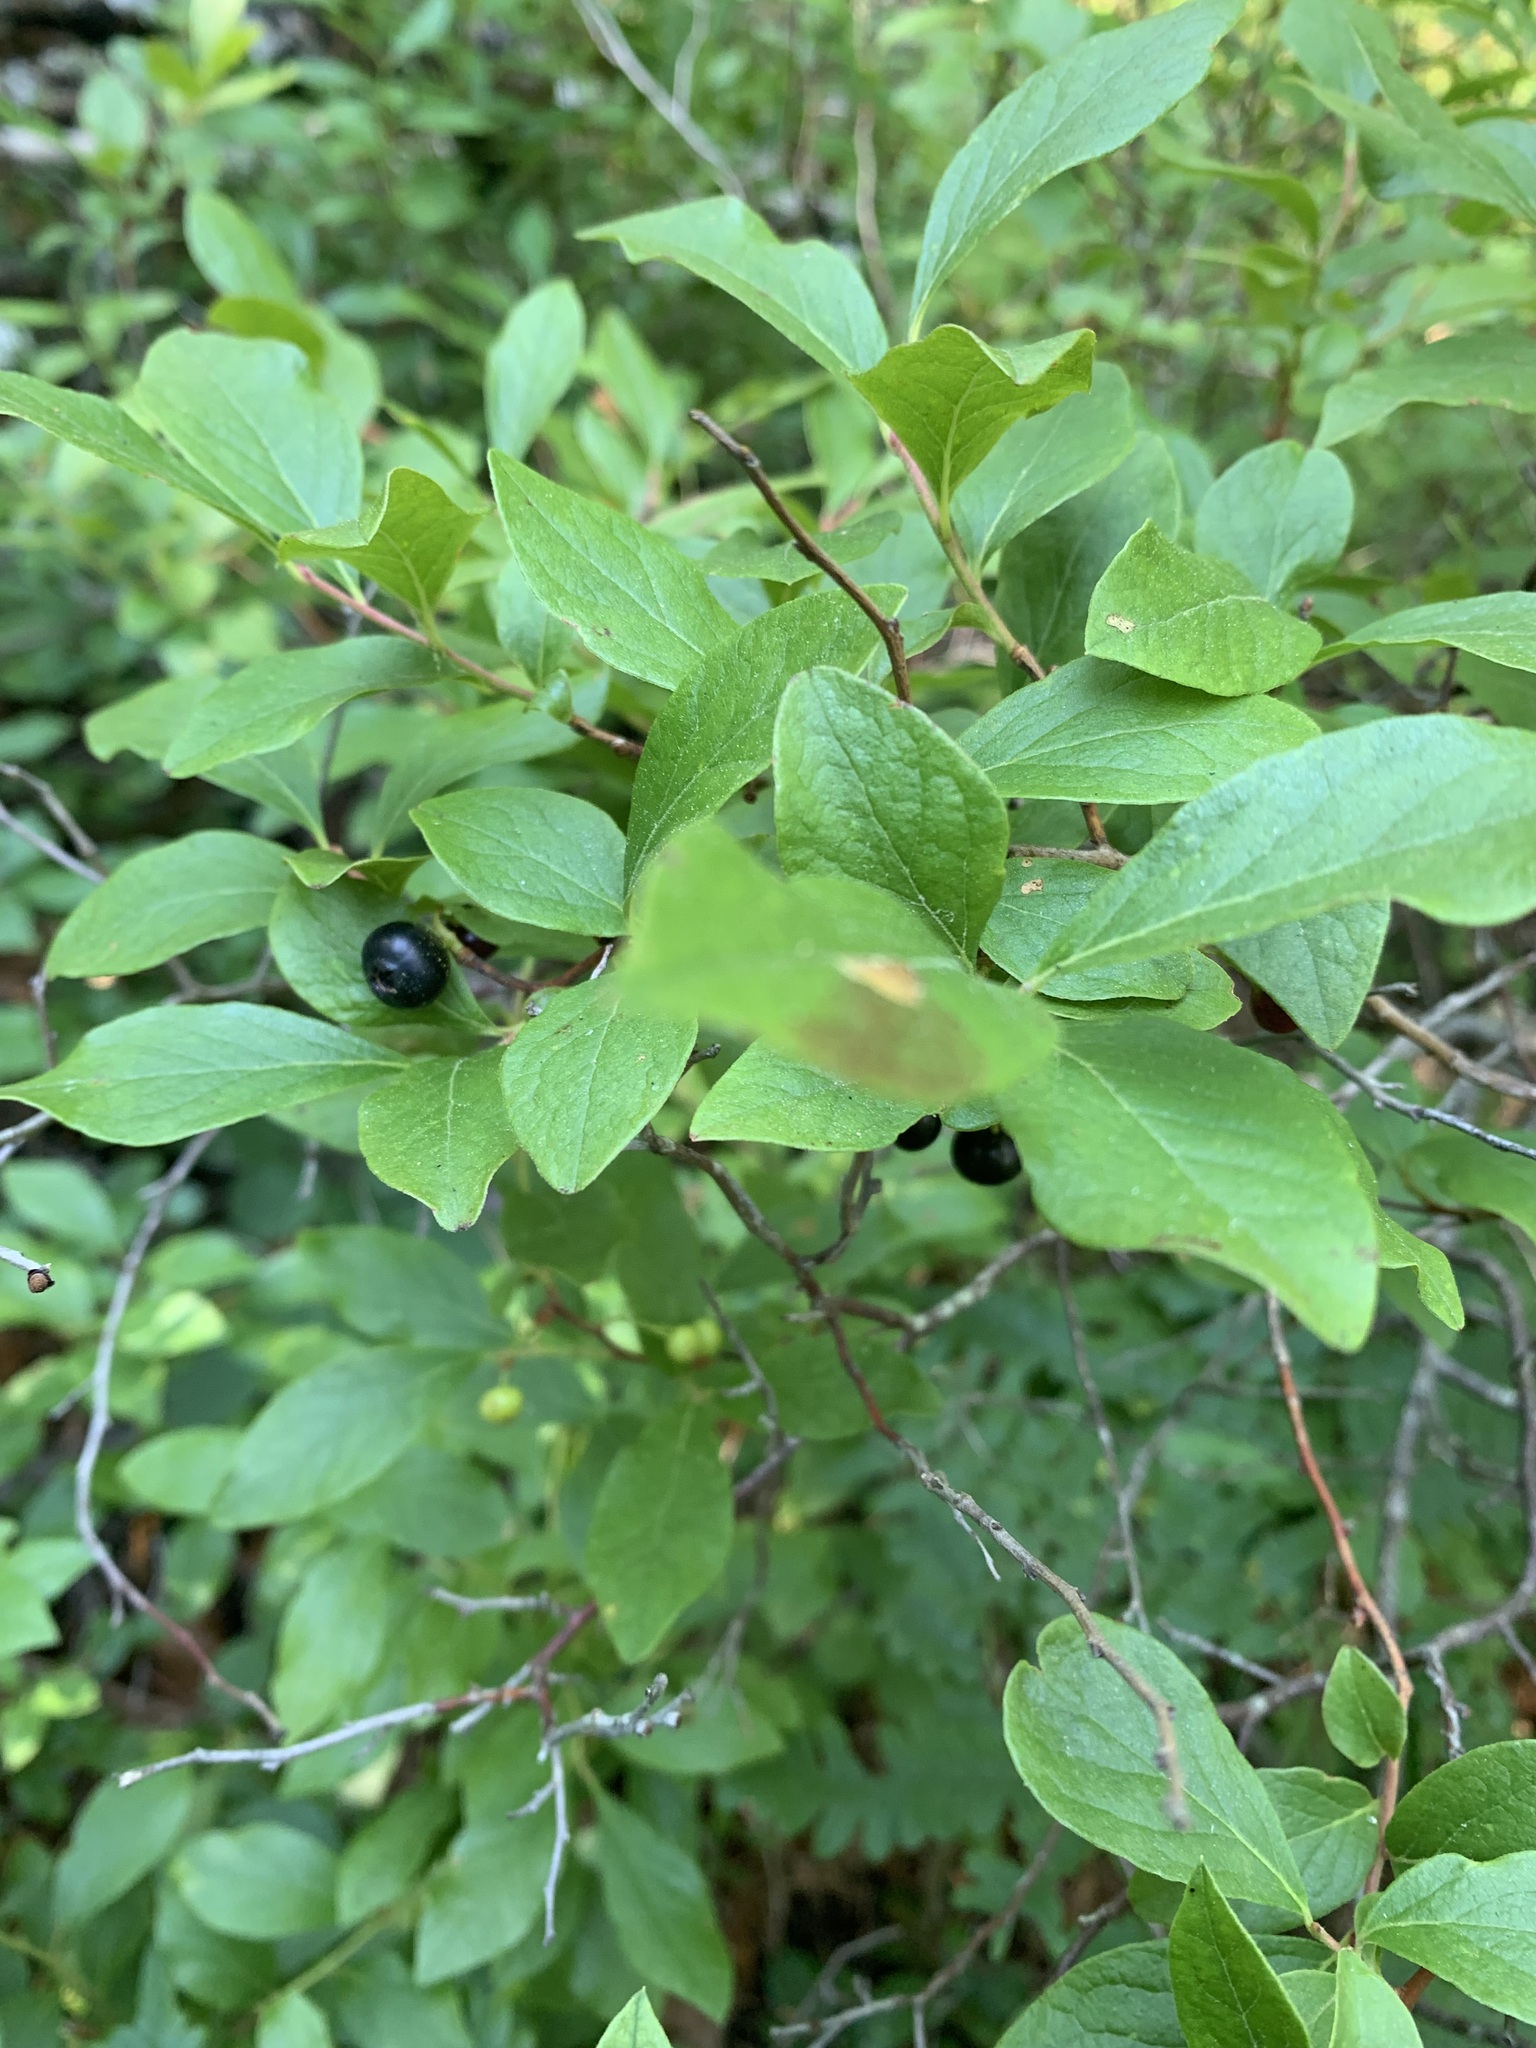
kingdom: Plantae
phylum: Tracheophyta
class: Magnoliopsida
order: Ericales
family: Ericaceae
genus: Gaylussacia
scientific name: Gaylussacia baccata
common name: Black huckleberry
